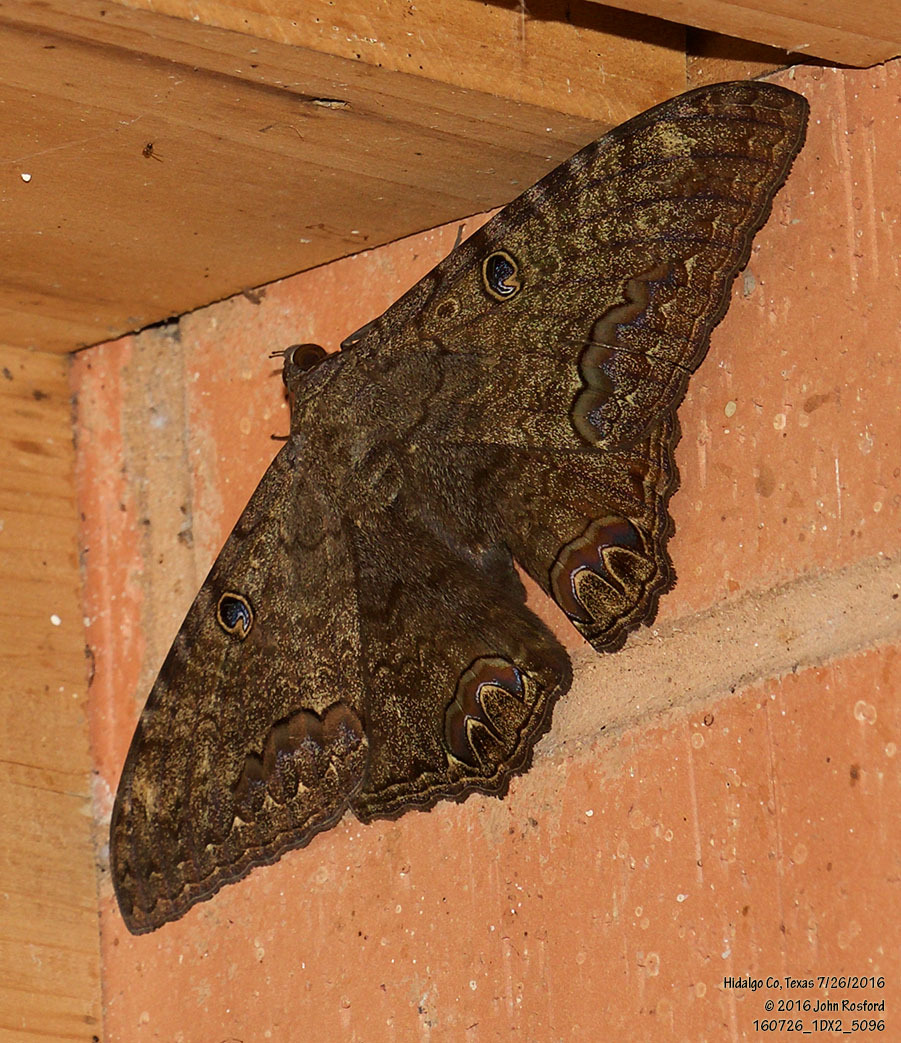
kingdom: Animalia
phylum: Arthropoda
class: Insecta
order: Lepidoptera
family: Erebidae
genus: Ascalapha
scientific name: Ascalapha odorata
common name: Black witch
